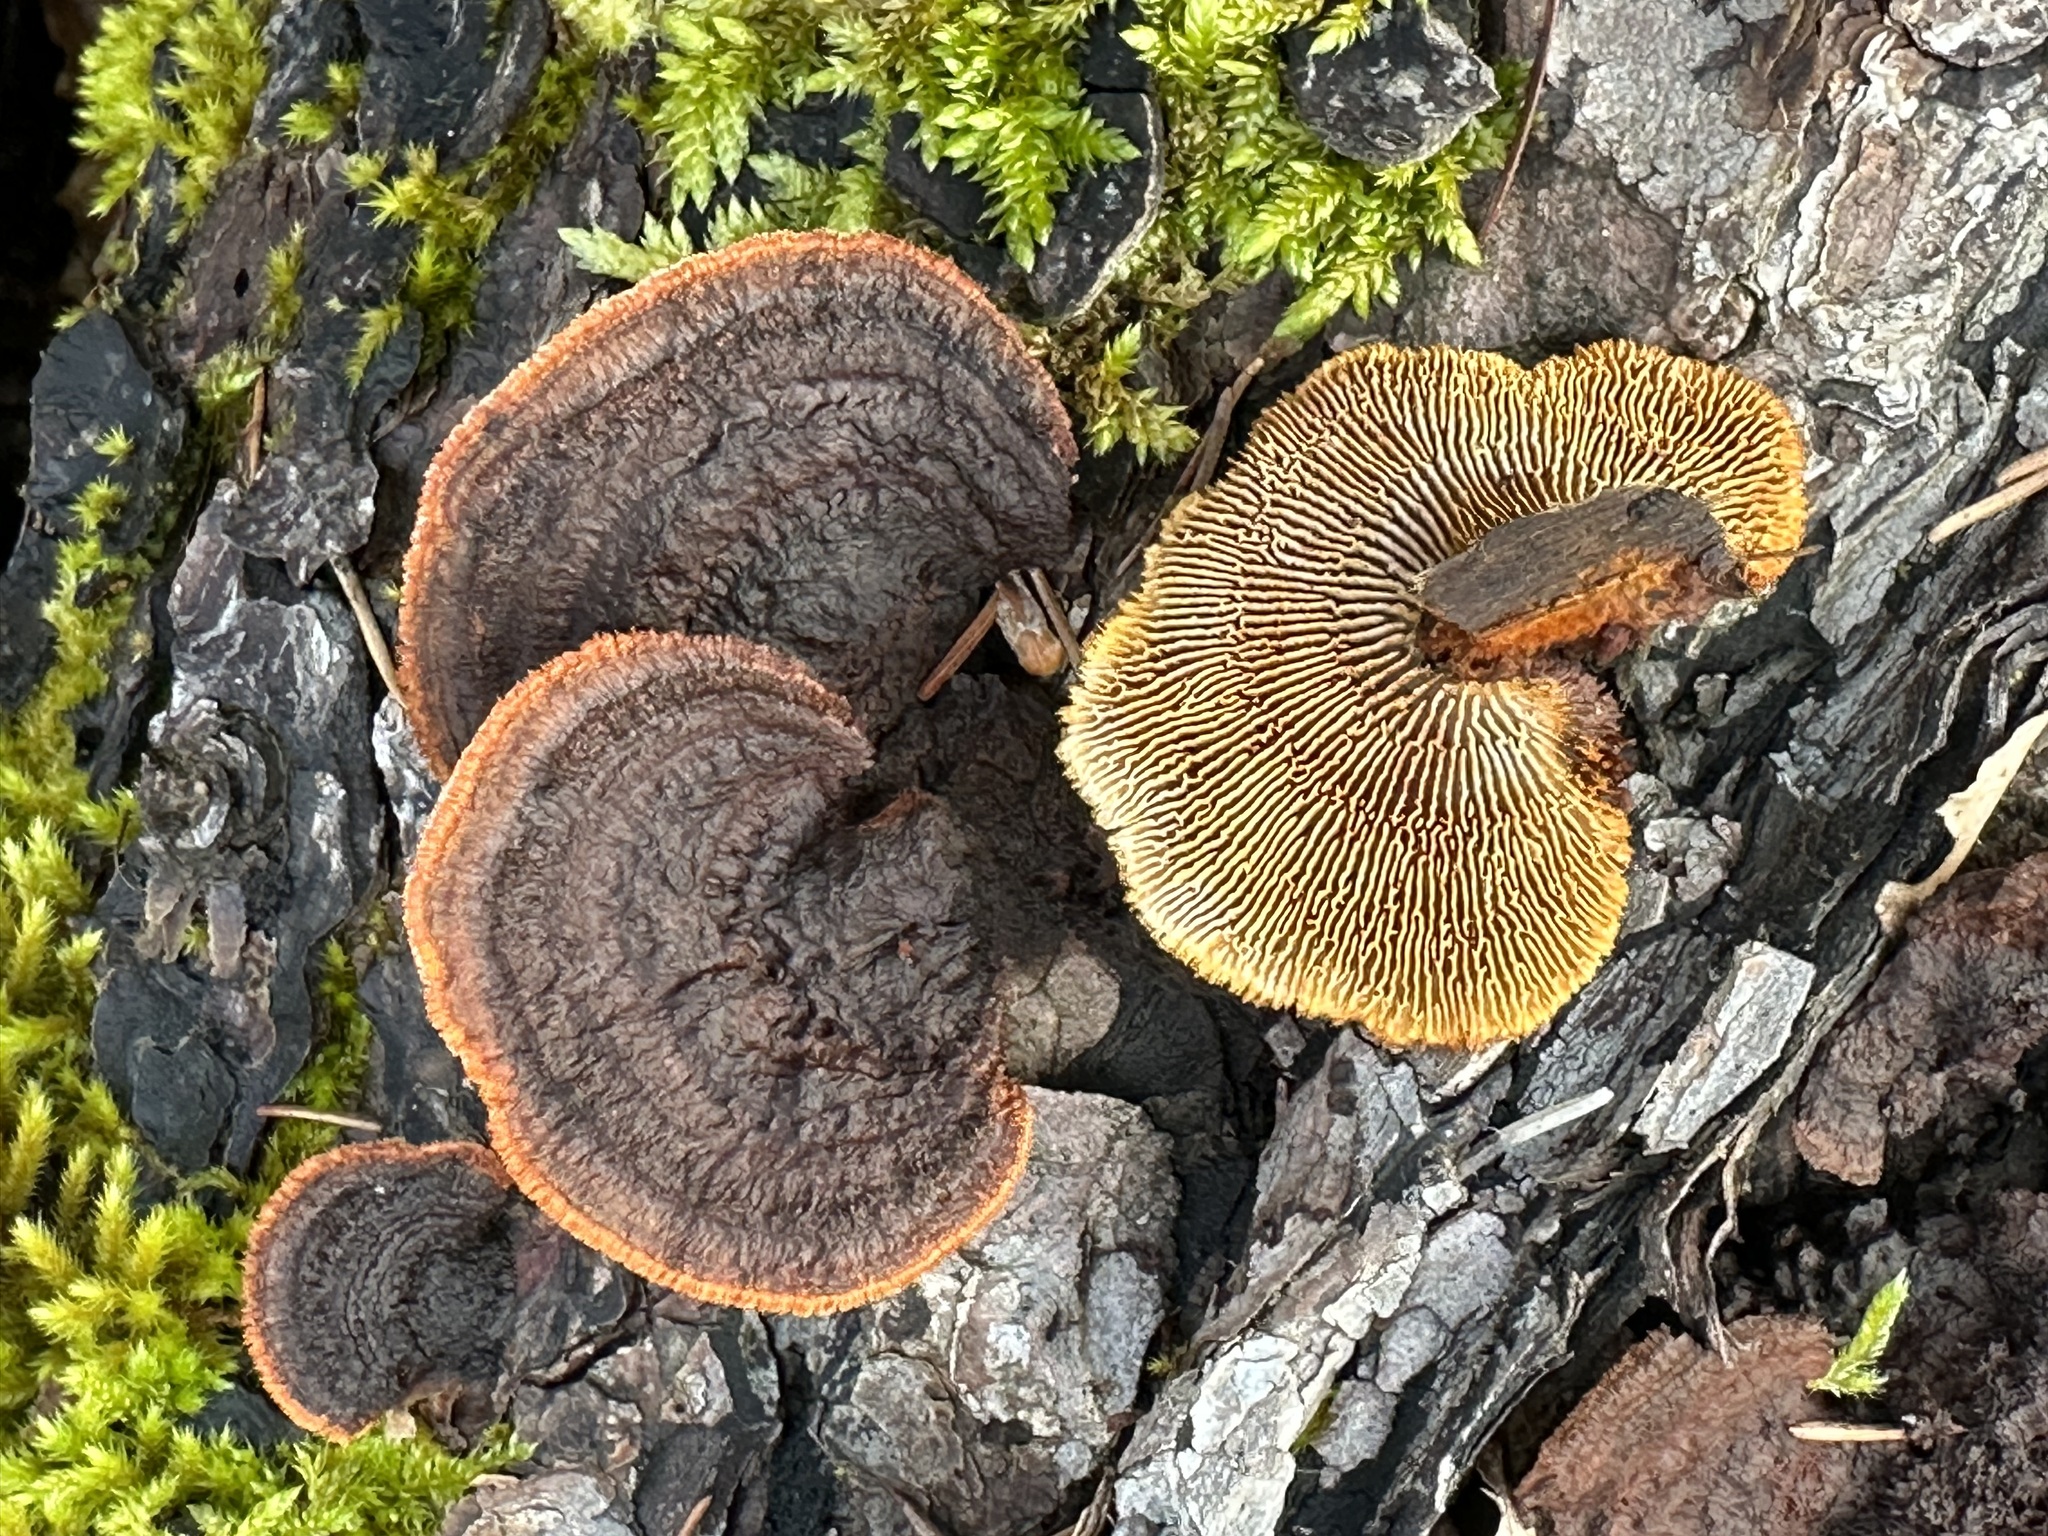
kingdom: Fungi
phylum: Basidiomycota
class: Agaricomycetes
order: Gloeophyllales
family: Gloeophyllaceae
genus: Gloeophyllum
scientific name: Gloeophyllum sepiarium
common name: Conifer mazegill
